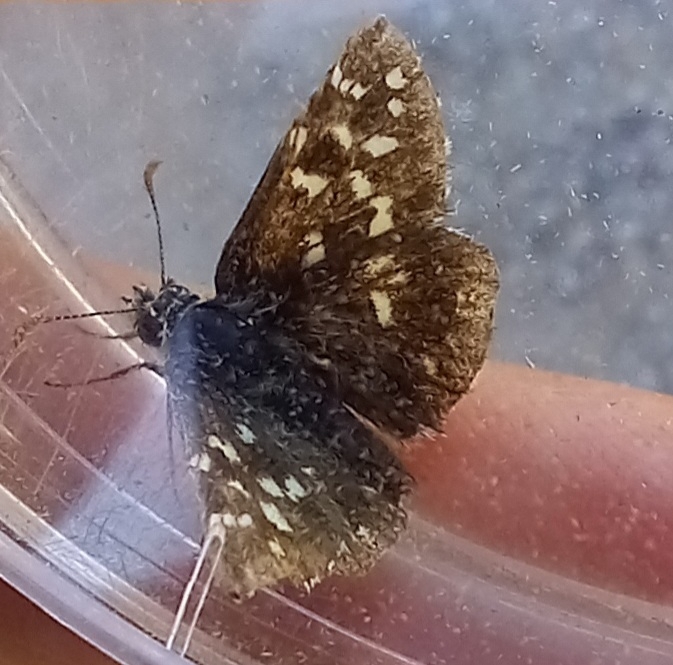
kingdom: Animalia
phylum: Arthropoda
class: Insecta
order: Lepidoptera
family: Hesperiidae
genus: Pyrgus
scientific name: Pyrgus malvoides
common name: Southern grizzled skipper
